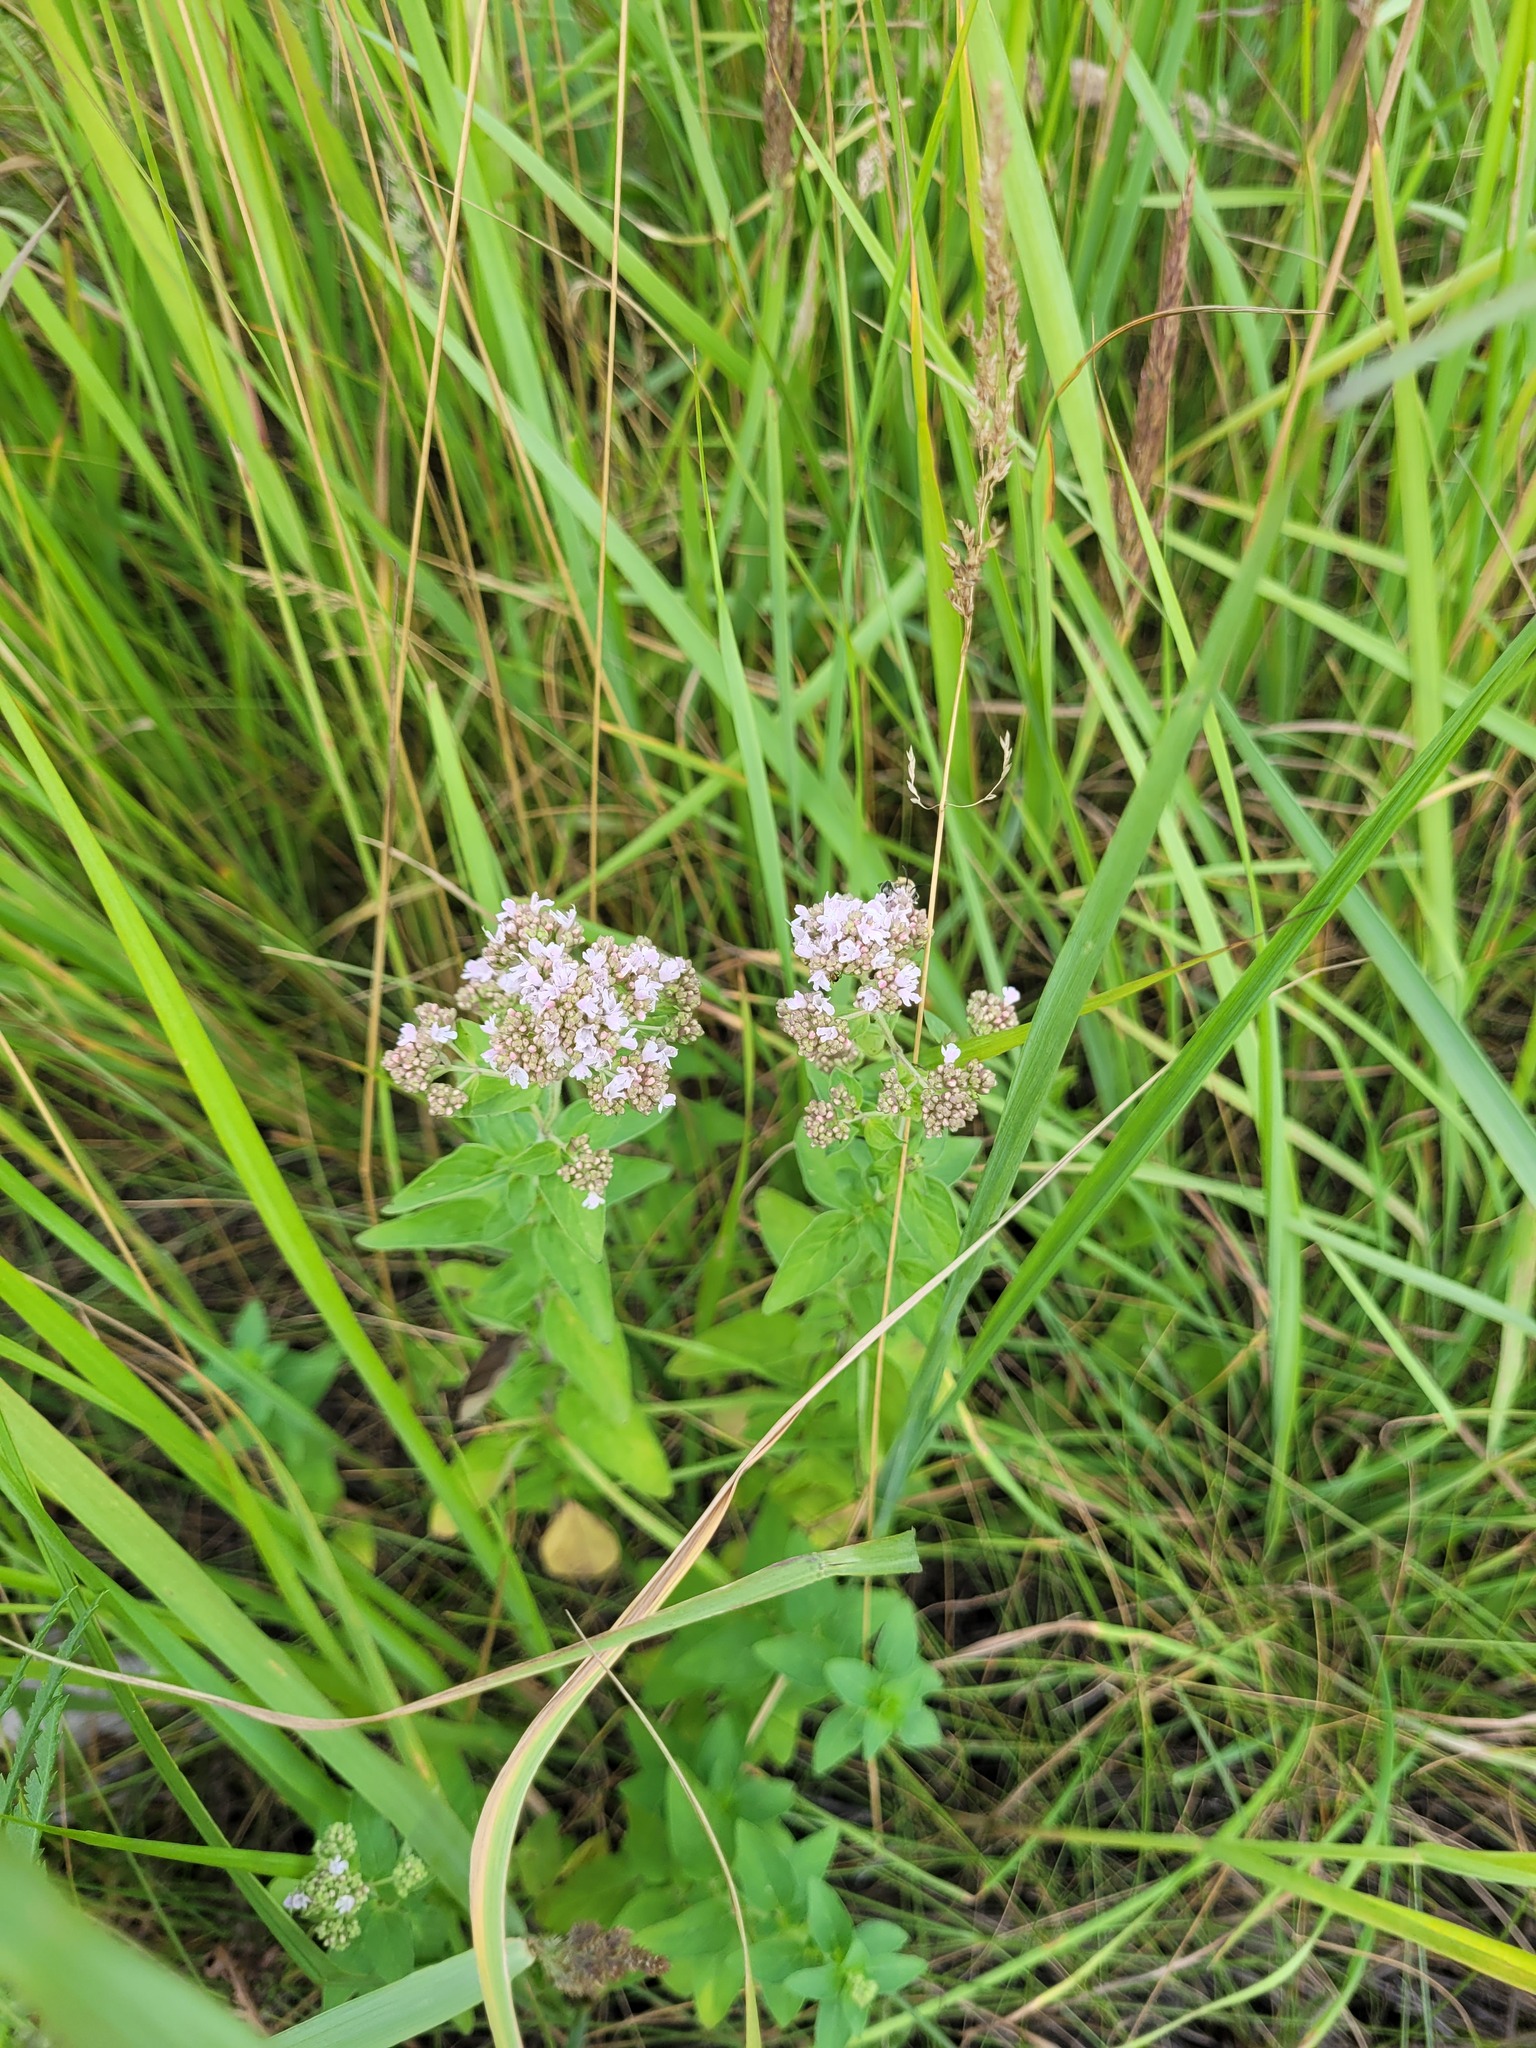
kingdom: Plantae
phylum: Tracheophyta
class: Magnoliopsida
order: Lamiales
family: Lamiaceae
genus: Origanum
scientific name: Origanum vulgare
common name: Wild marjoram
